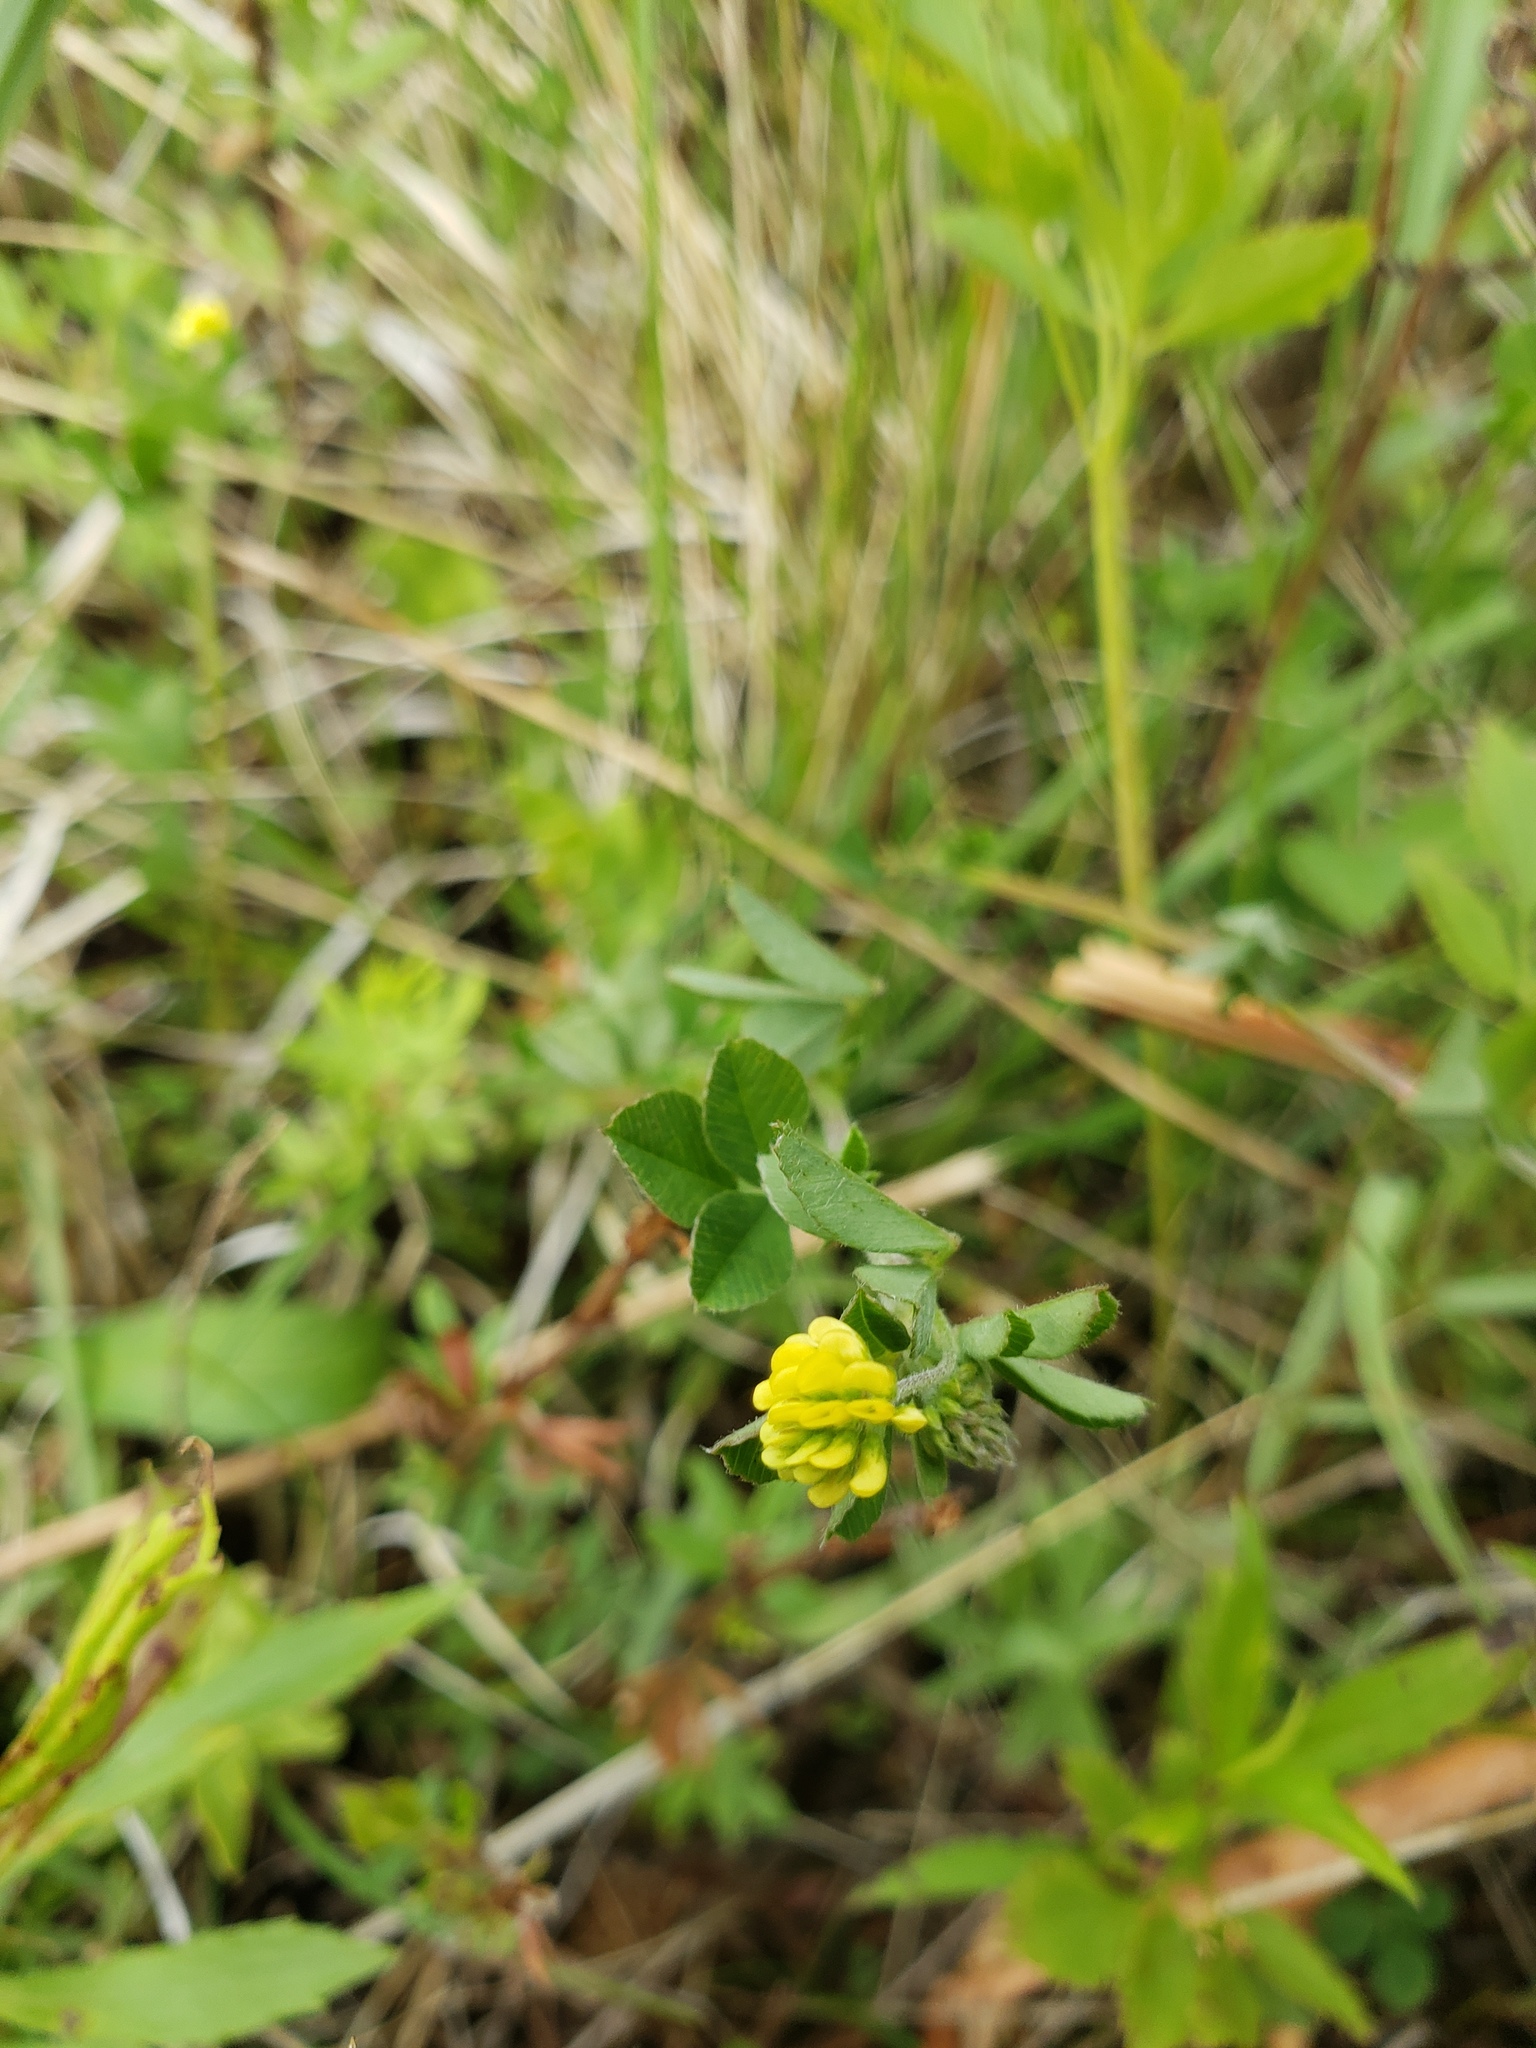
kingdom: Plantae
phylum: Tracheophyta
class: Magnoliopsida
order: Fabales
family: Fabaceae
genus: Medicago
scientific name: Medicago lupulina
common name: Black medick
